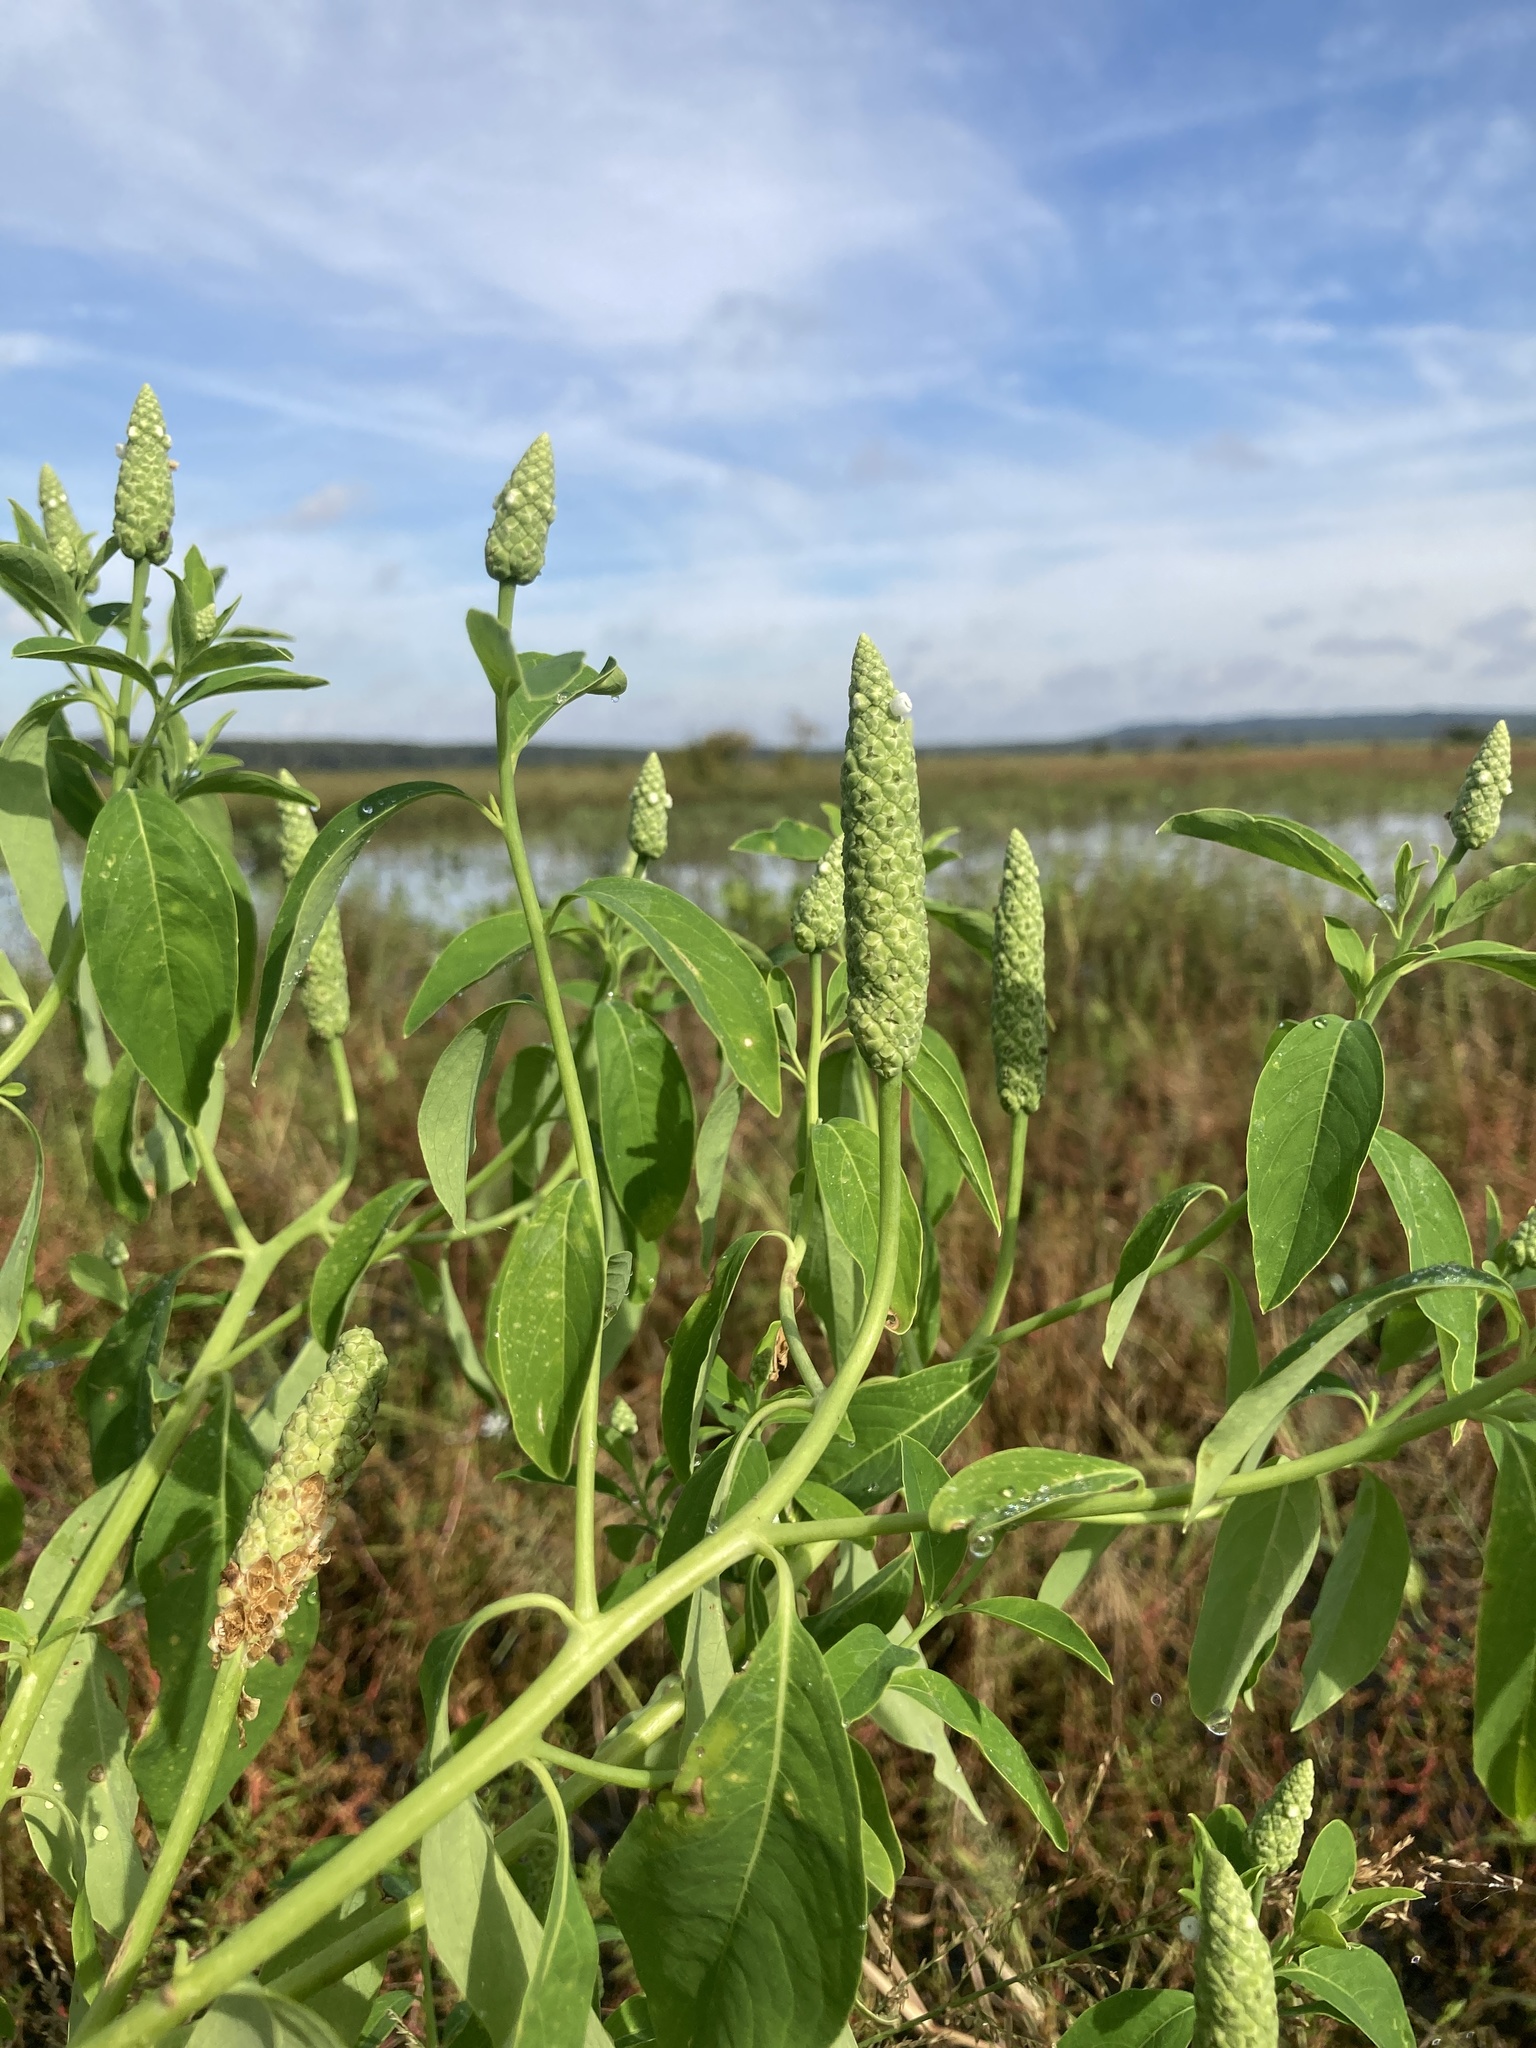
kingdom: Plantae
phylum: Tracheophyta
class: Magnoliopsida
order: Solanales
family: Sphenocleaceae
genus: Sphenoclea
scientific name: Sphenoclea zeylanica
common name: Chickenspike
